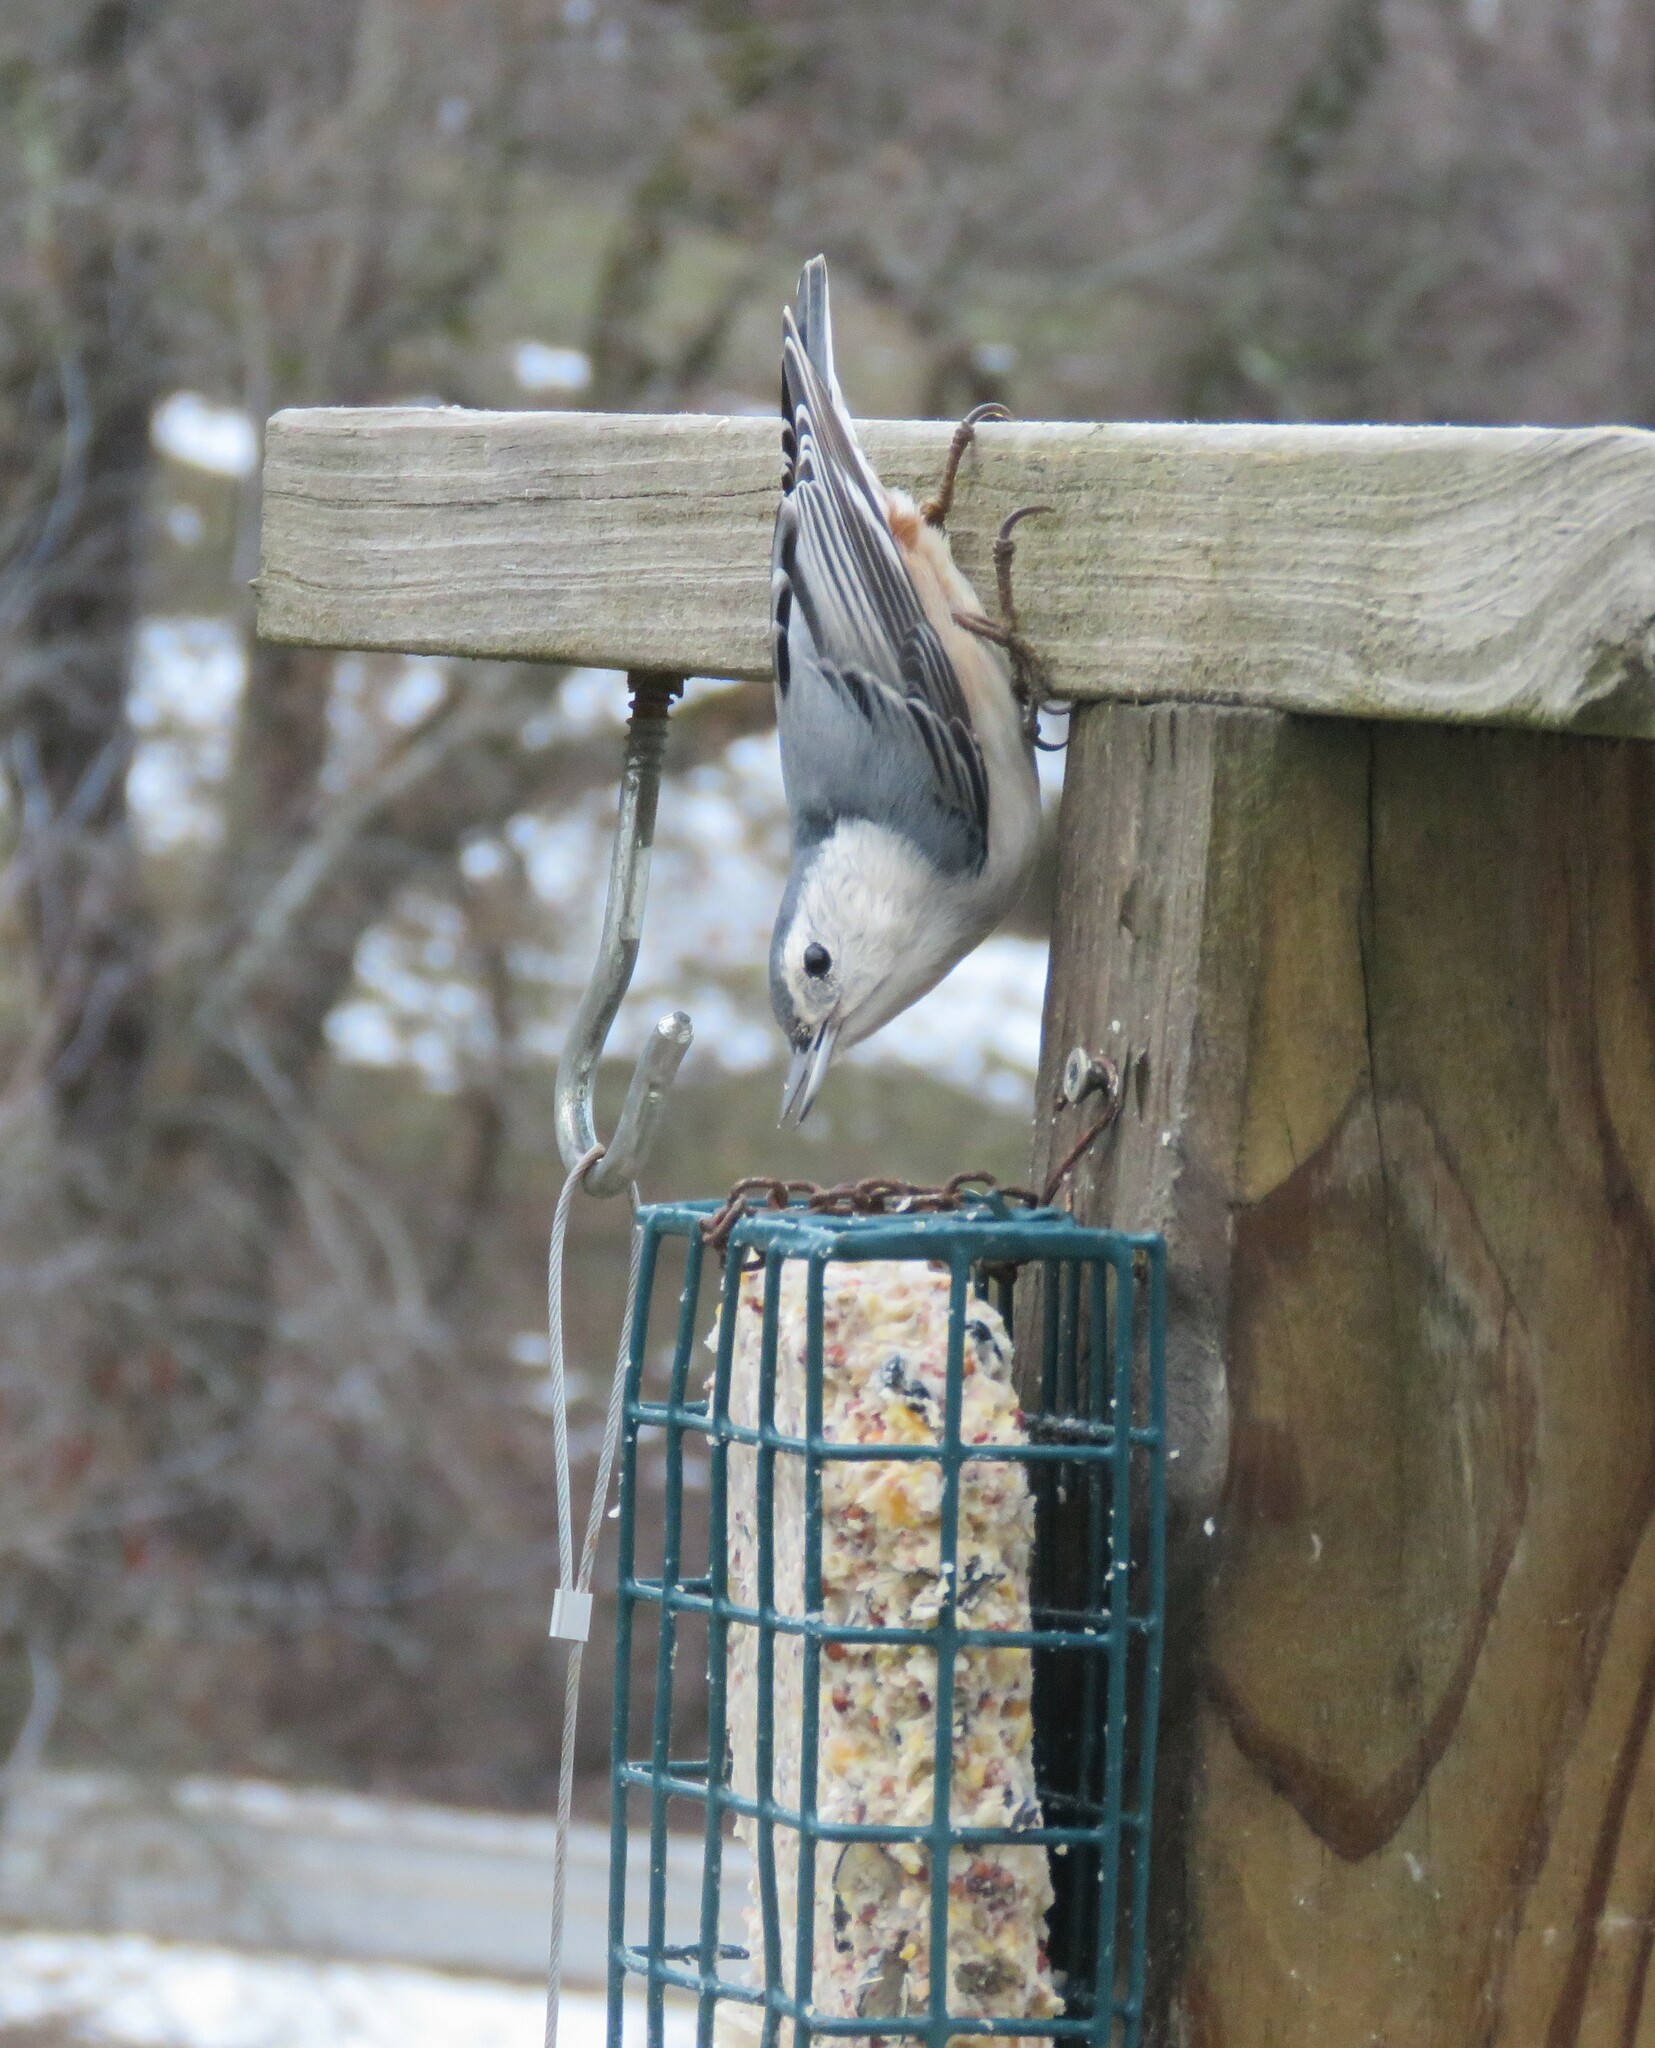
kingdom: Animalia
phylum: Chordata
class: Aves
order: Passeriformes
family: Sittidae
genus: Sitta
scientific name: Sitta carolinensis
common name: White-breasted nuthatch
